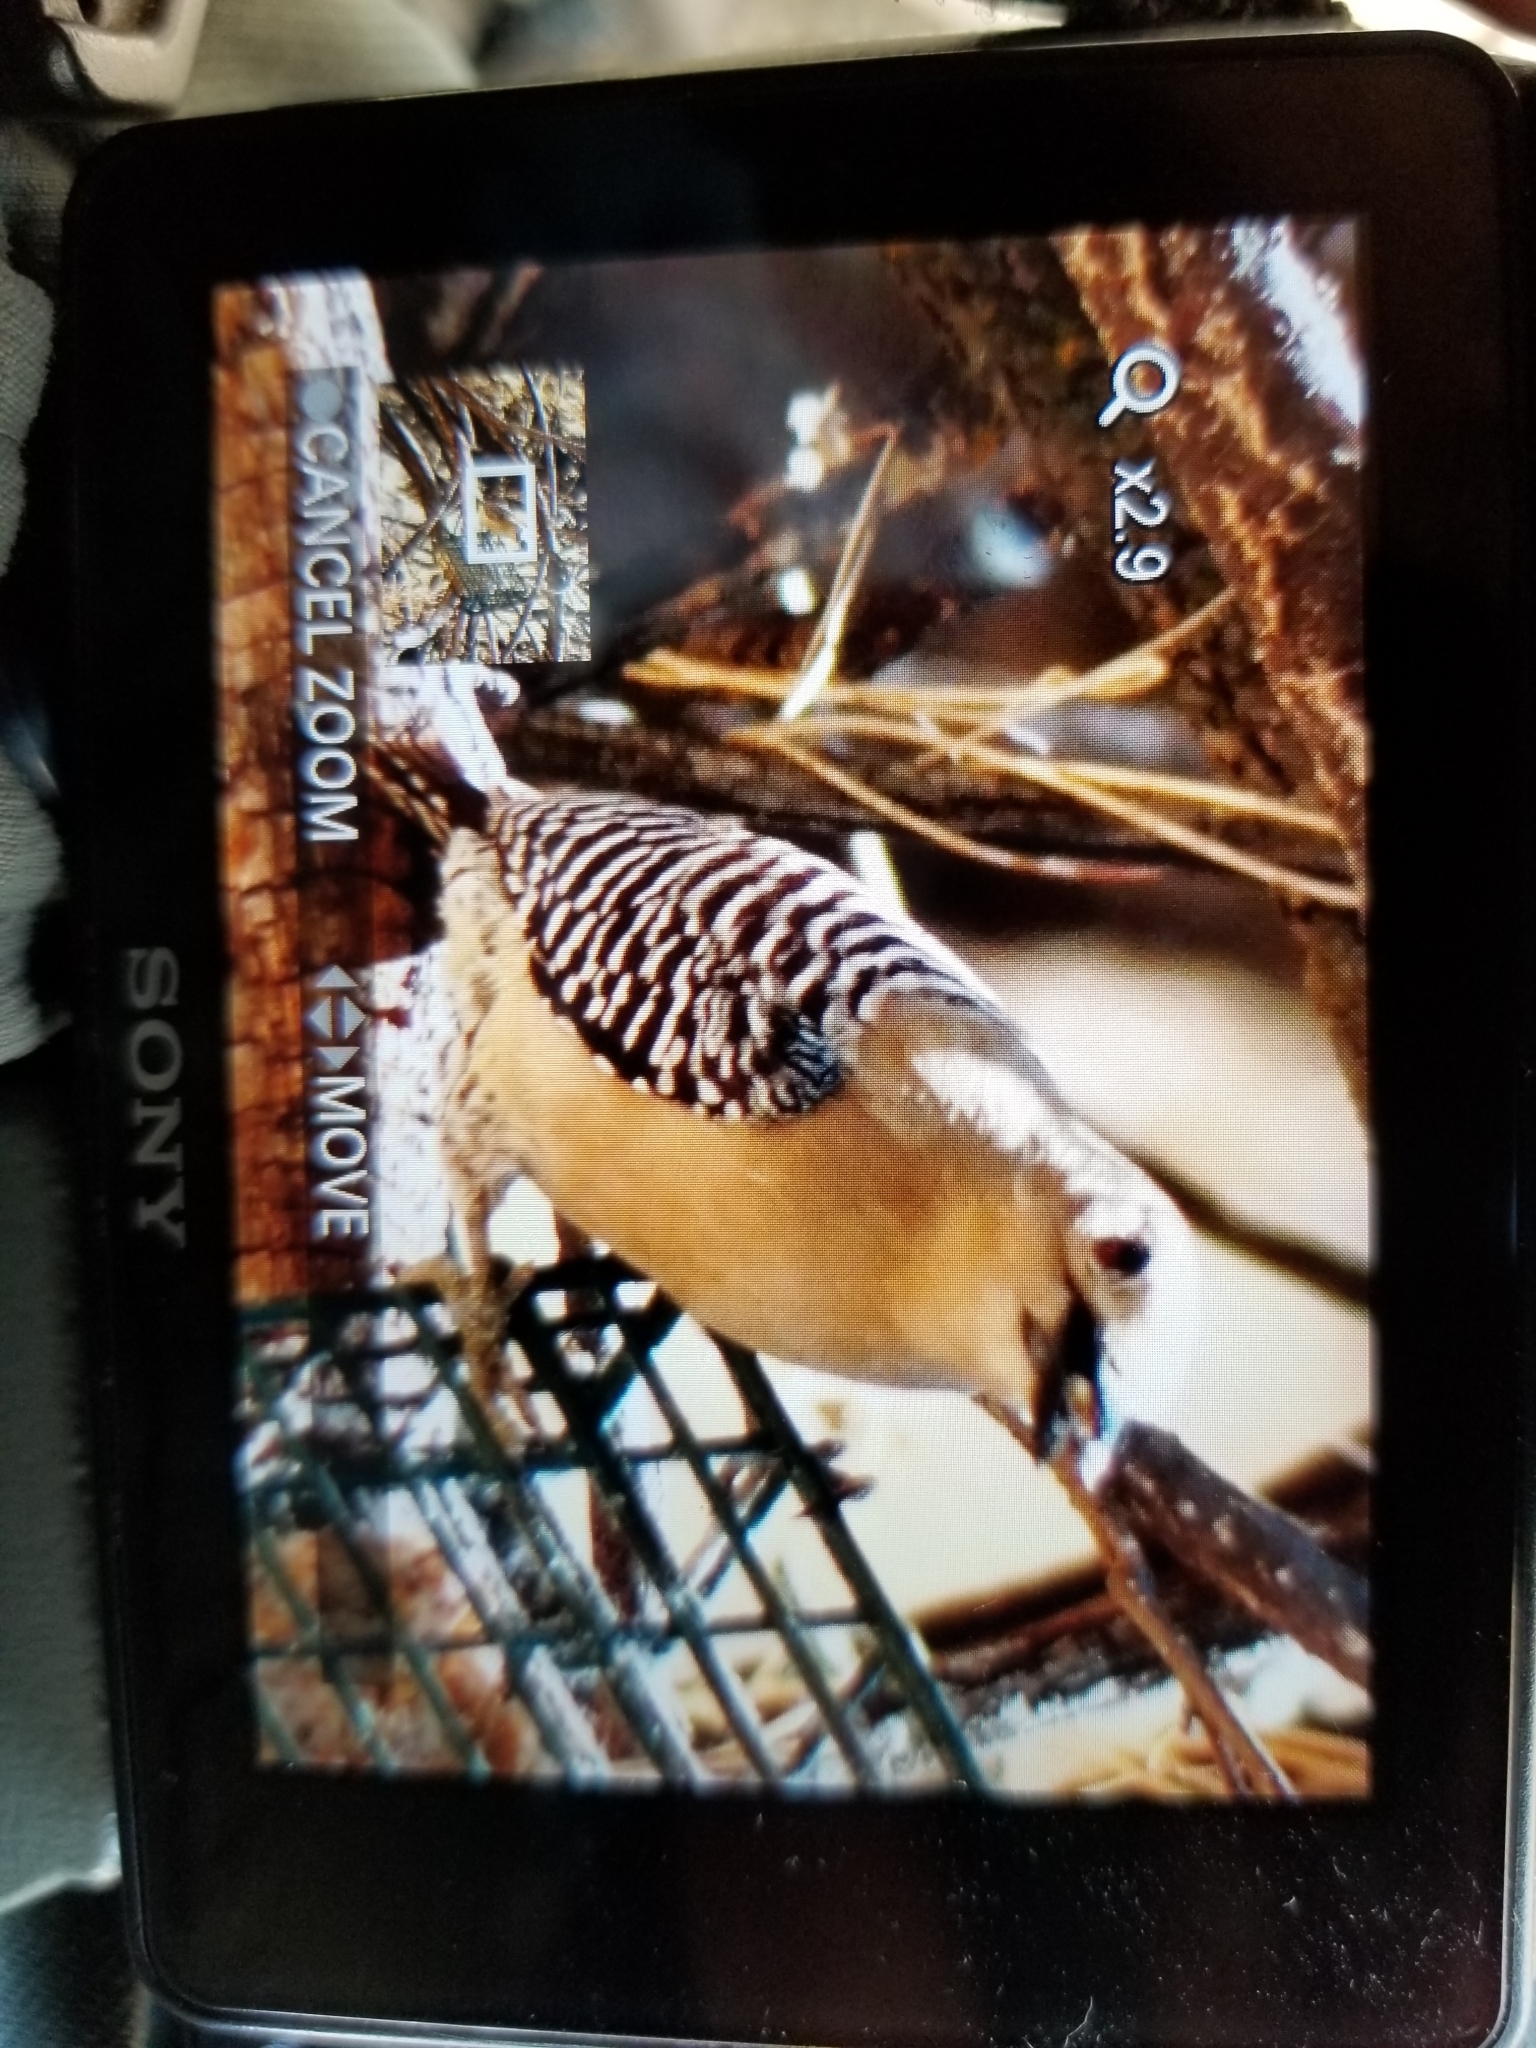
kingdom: Animalia
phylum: Chordata
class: Aves
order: Piciformes
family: Picidae
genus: Melanerpes
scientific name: Melanerpes uropygialis
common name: Gila woodpecker
